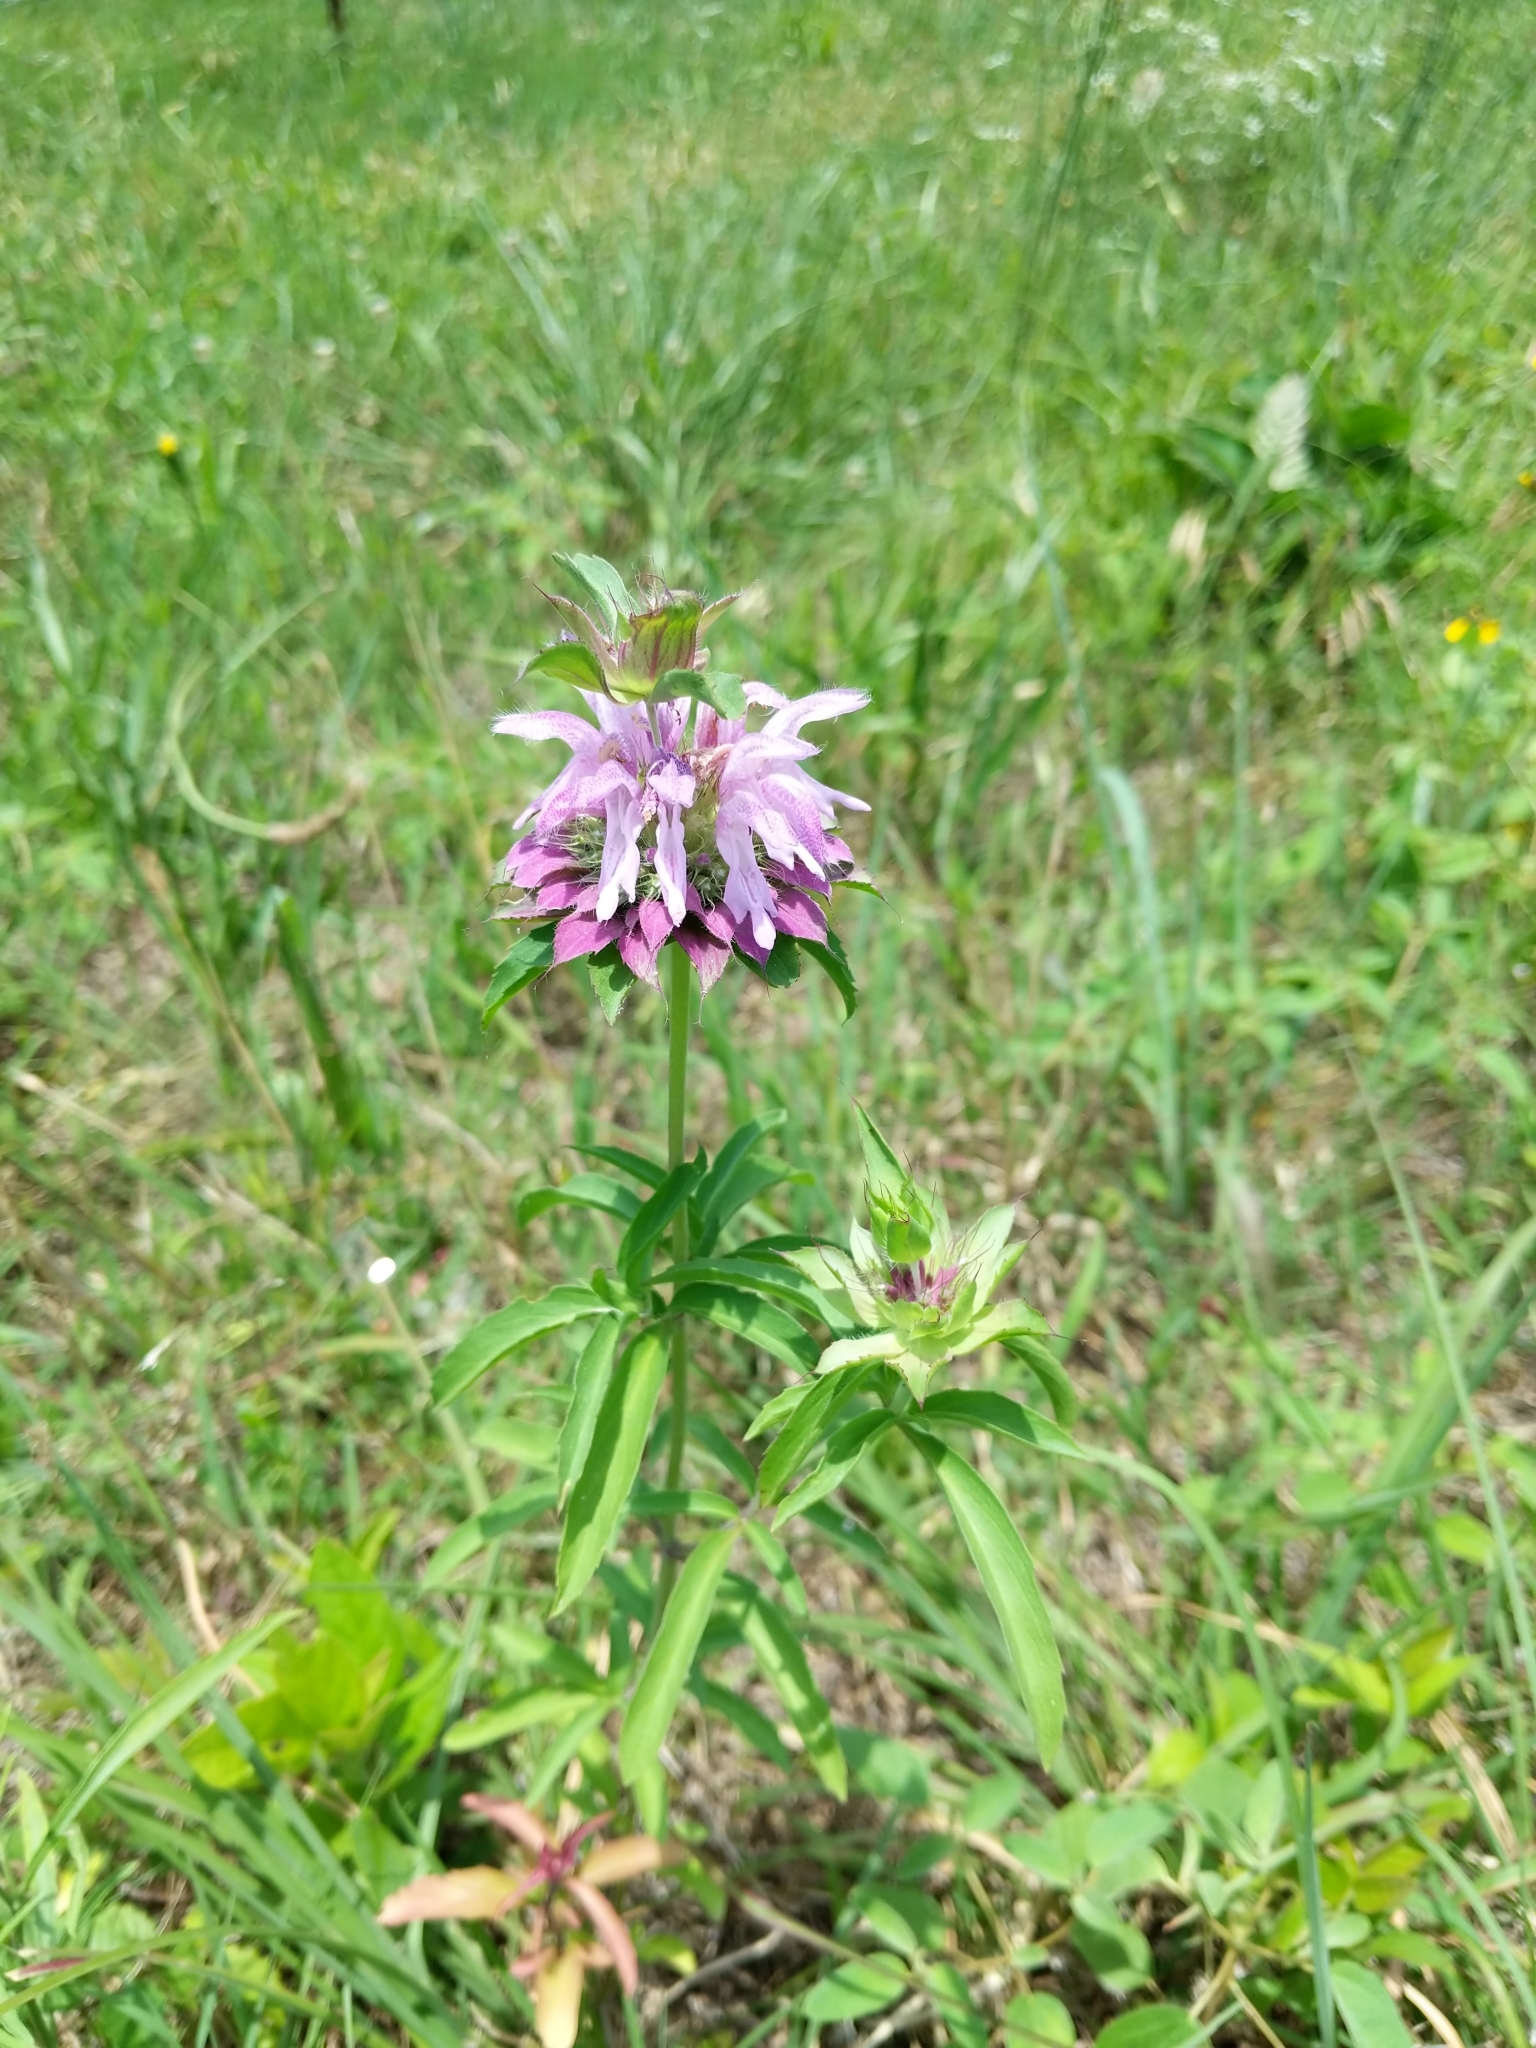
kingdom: Plantae
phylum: Tracheophyta
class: Magnoliopsida
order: Lamiales
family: Lamiaceae
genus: Monarda
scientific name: Monarda citriodora
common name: Lemon beebalm
